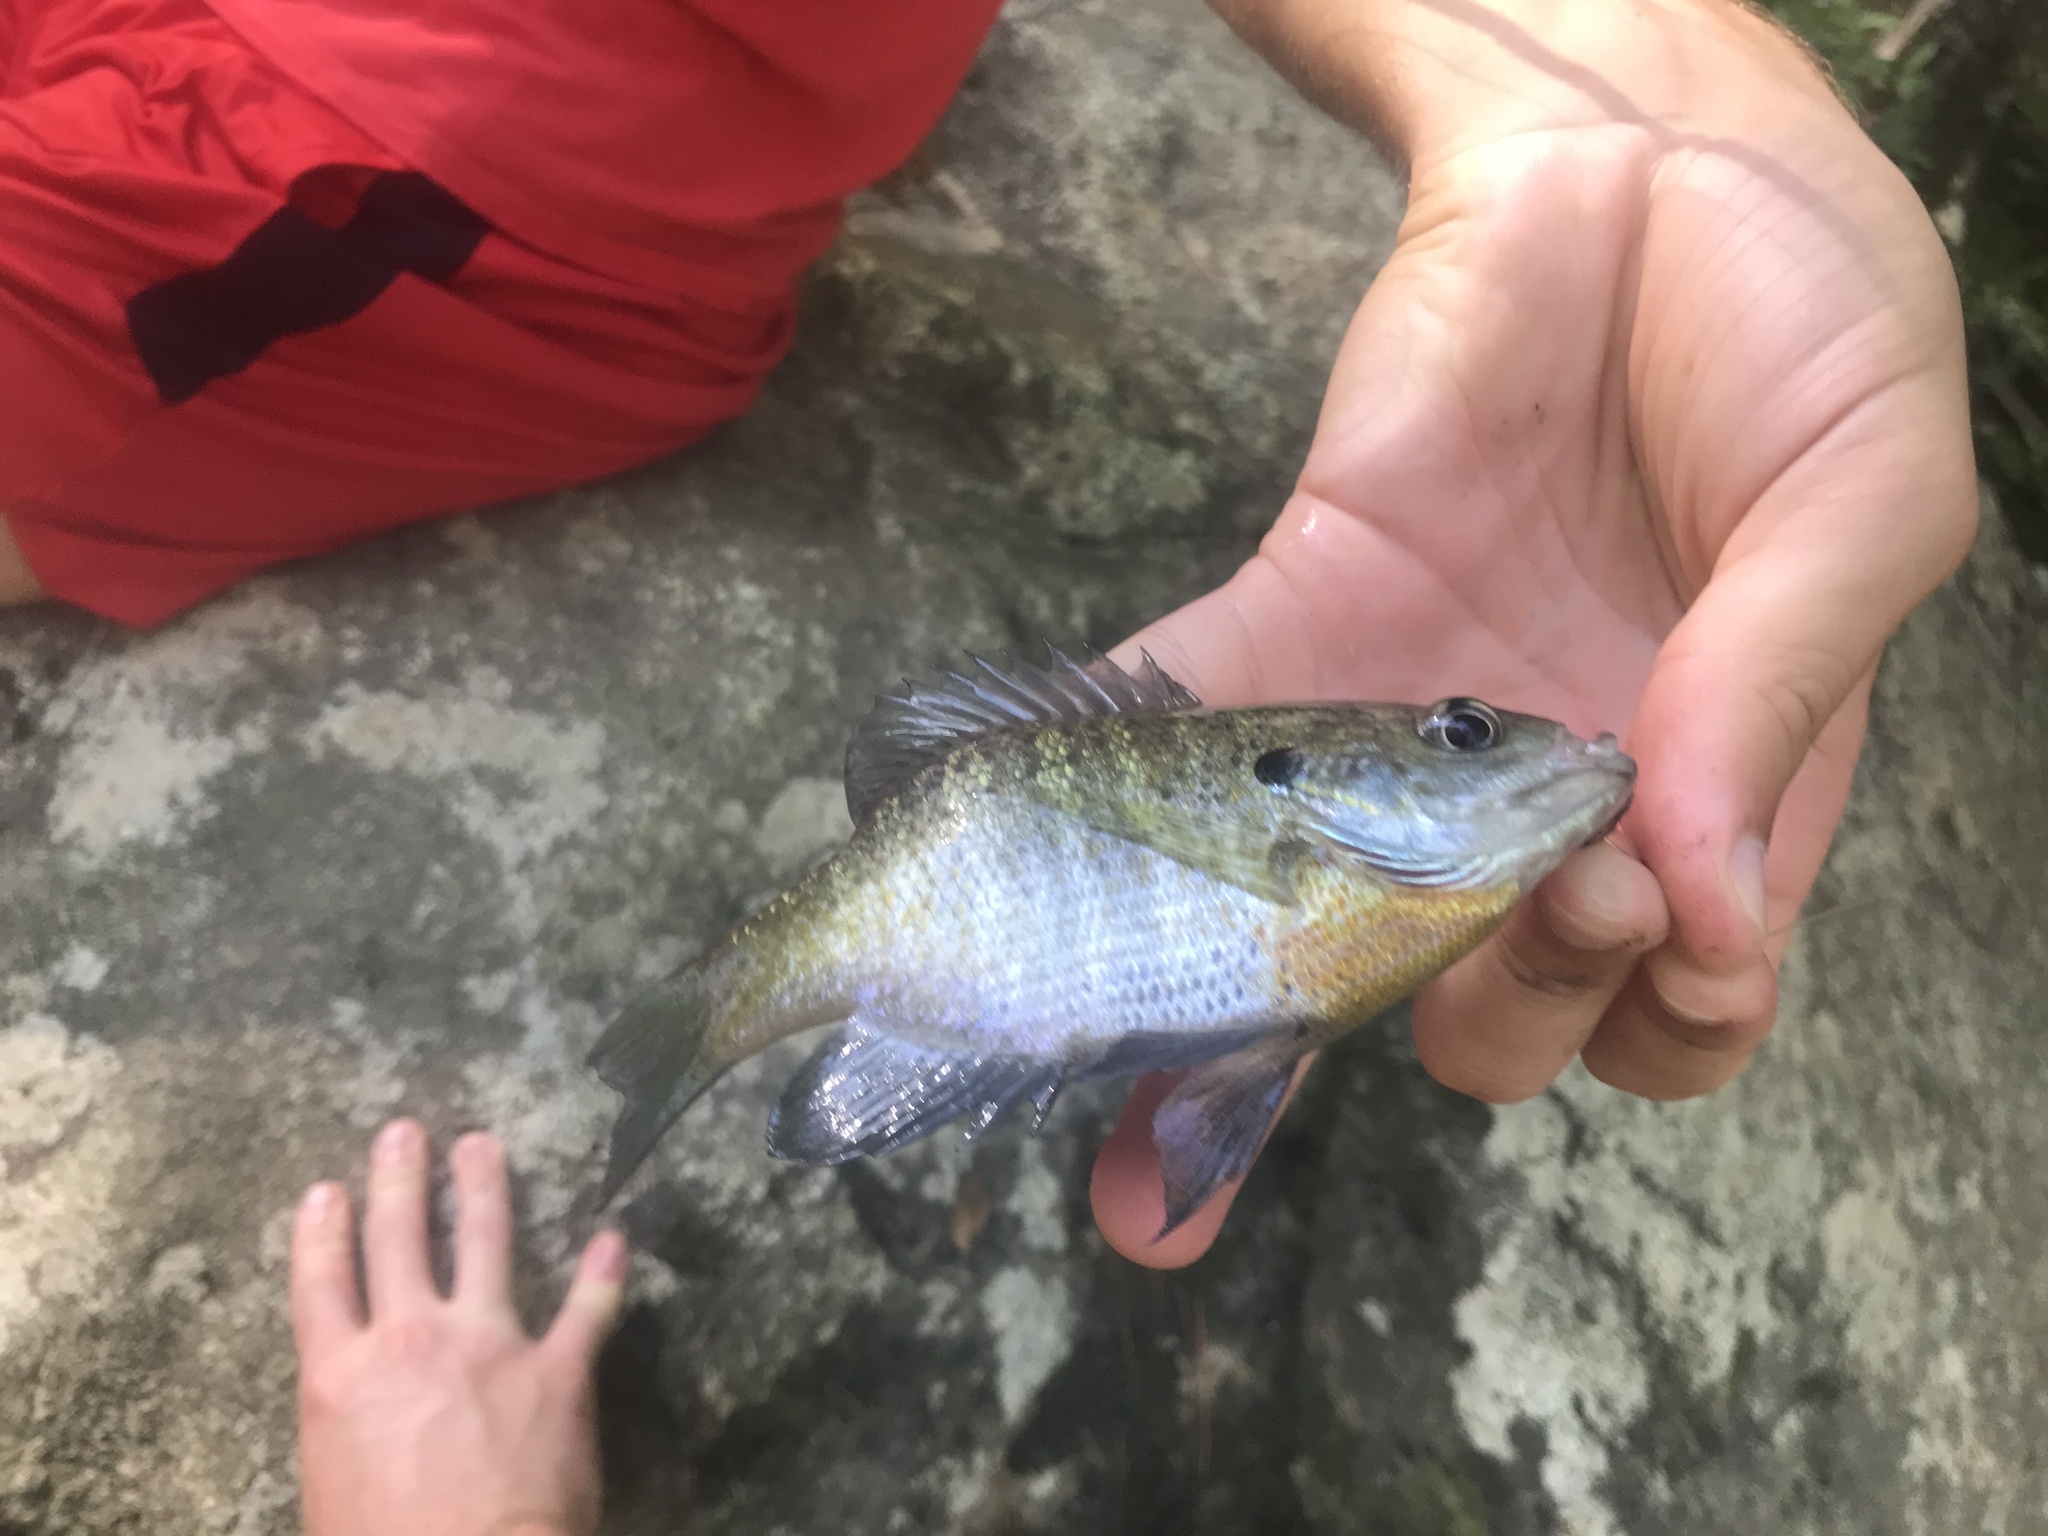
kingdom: Animalia
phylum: Chordata
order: Perciformes
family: Centrarchidae
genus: Lepomis
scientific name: Lepomis macrochirus
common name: Bluegill
